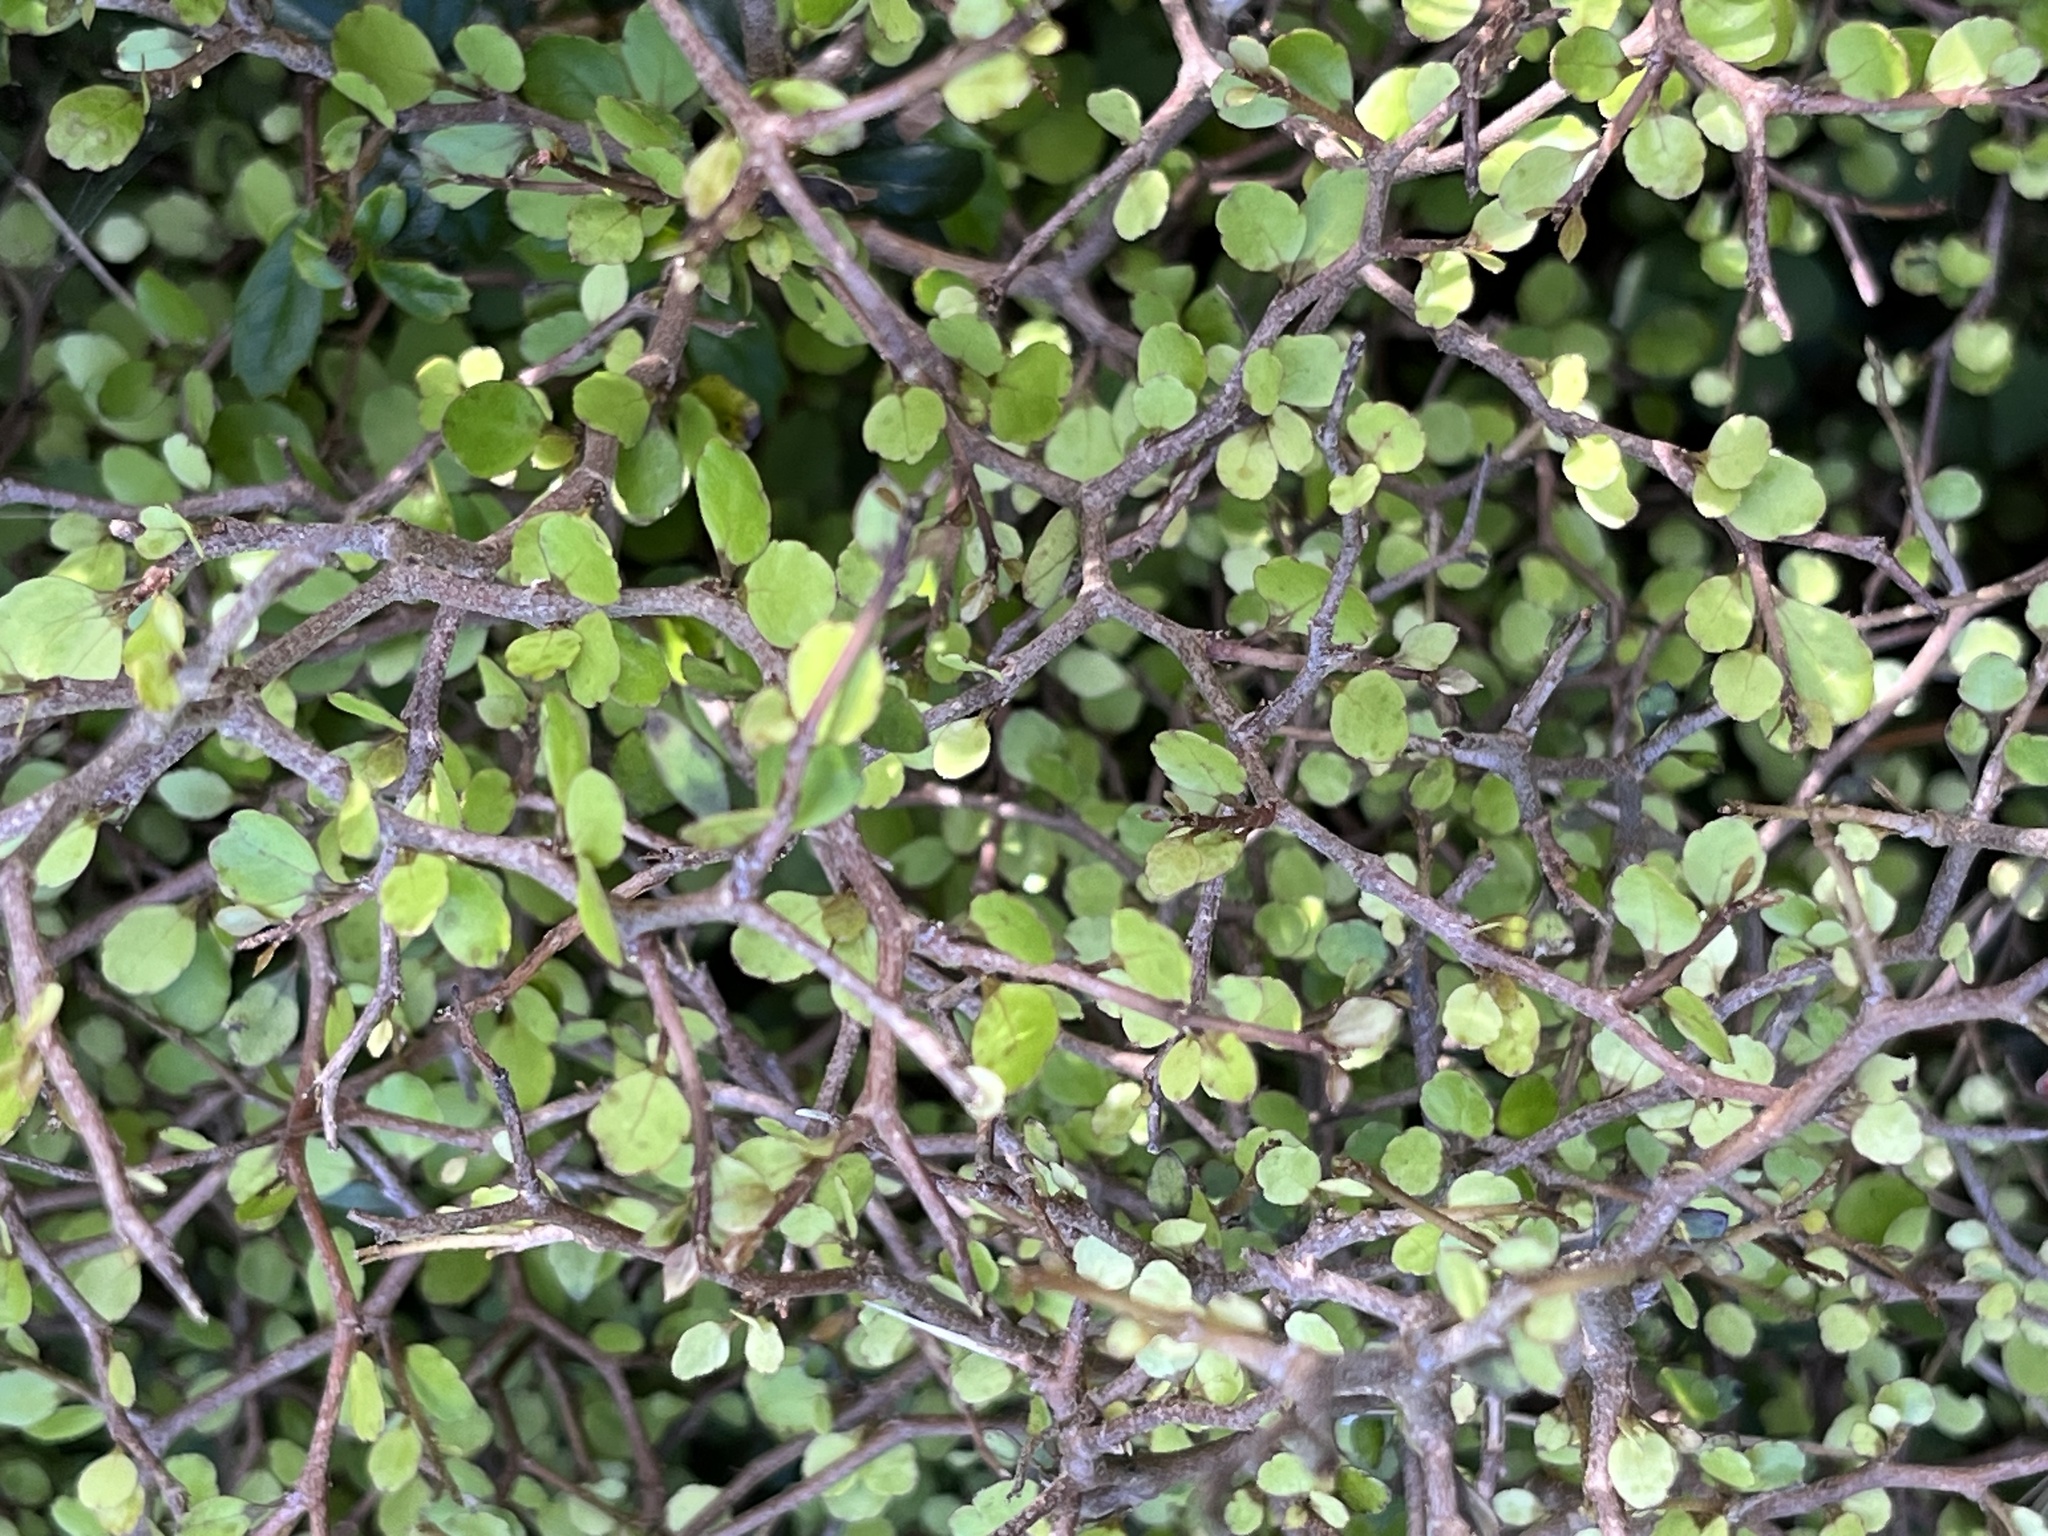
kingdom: Plantae
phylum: Tracheophyta
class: Magnoliopsida
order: Apiales
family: Araliaceae
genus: Raukaua
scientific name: Raukaua anomalus
